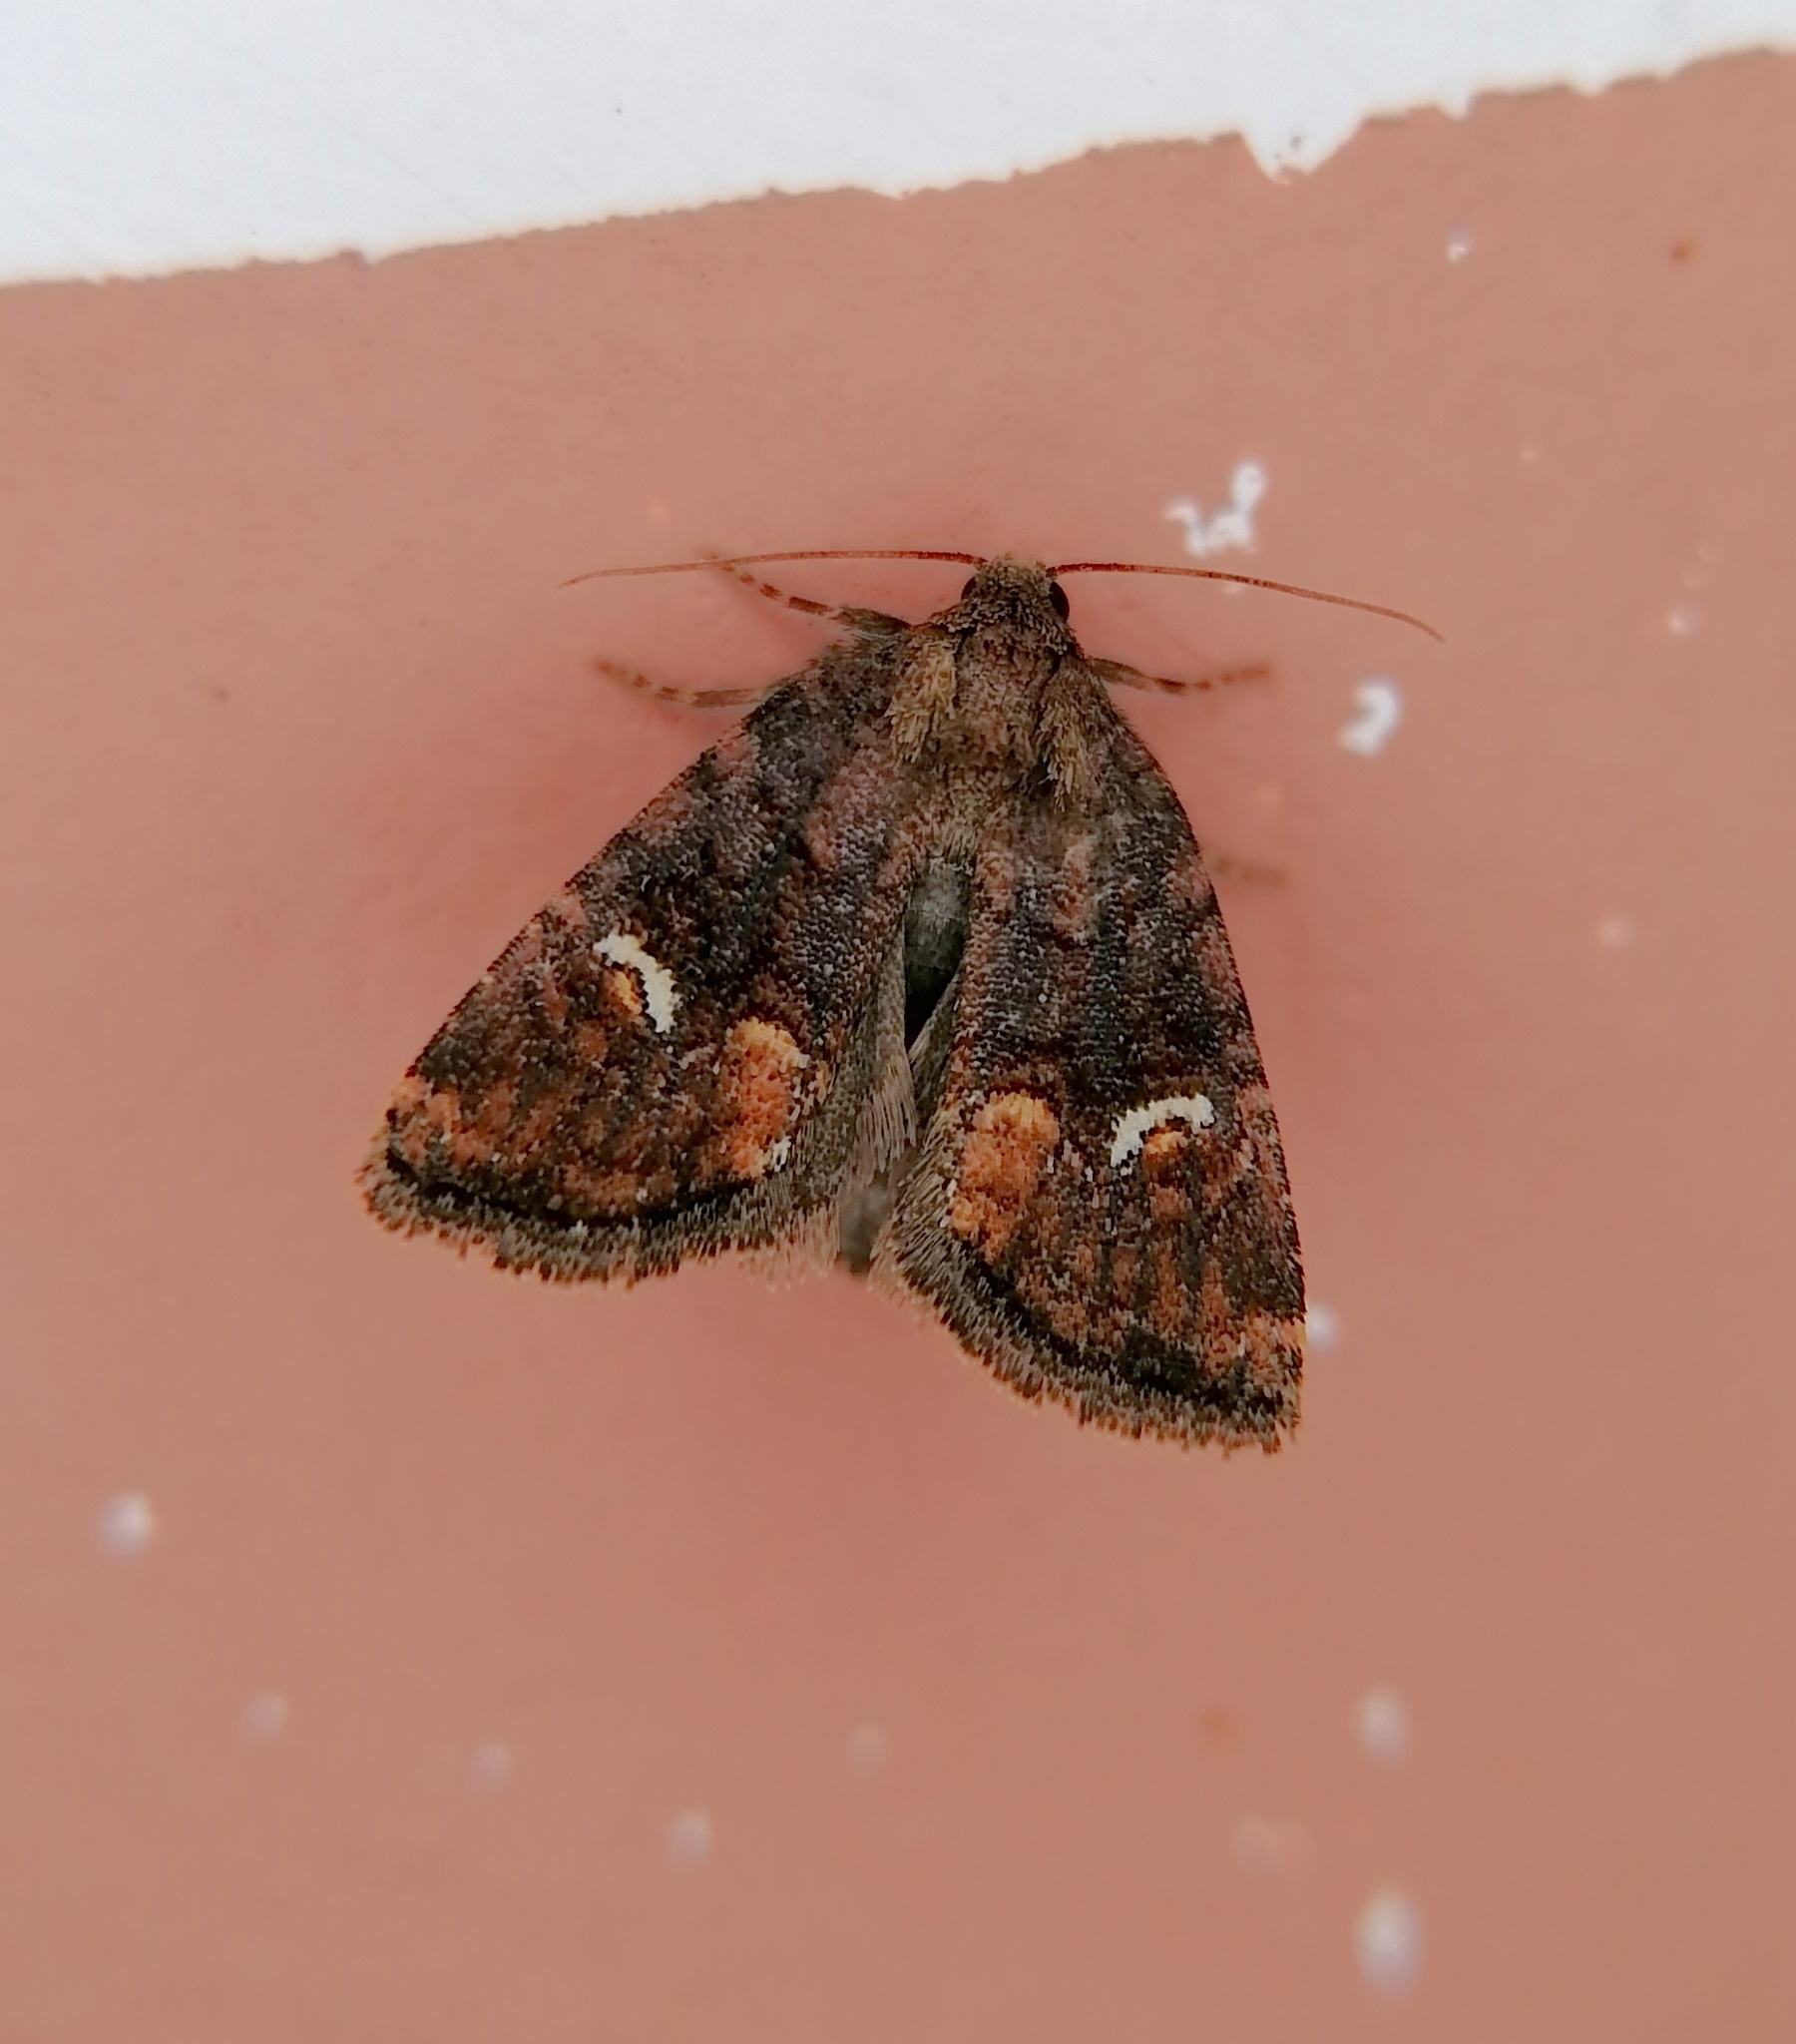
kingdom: Animalia
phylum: Arthropoda
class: Insecta
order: Lepidoptera
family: Noctuidae
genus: Oligia
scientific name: Oligia leuconephra
